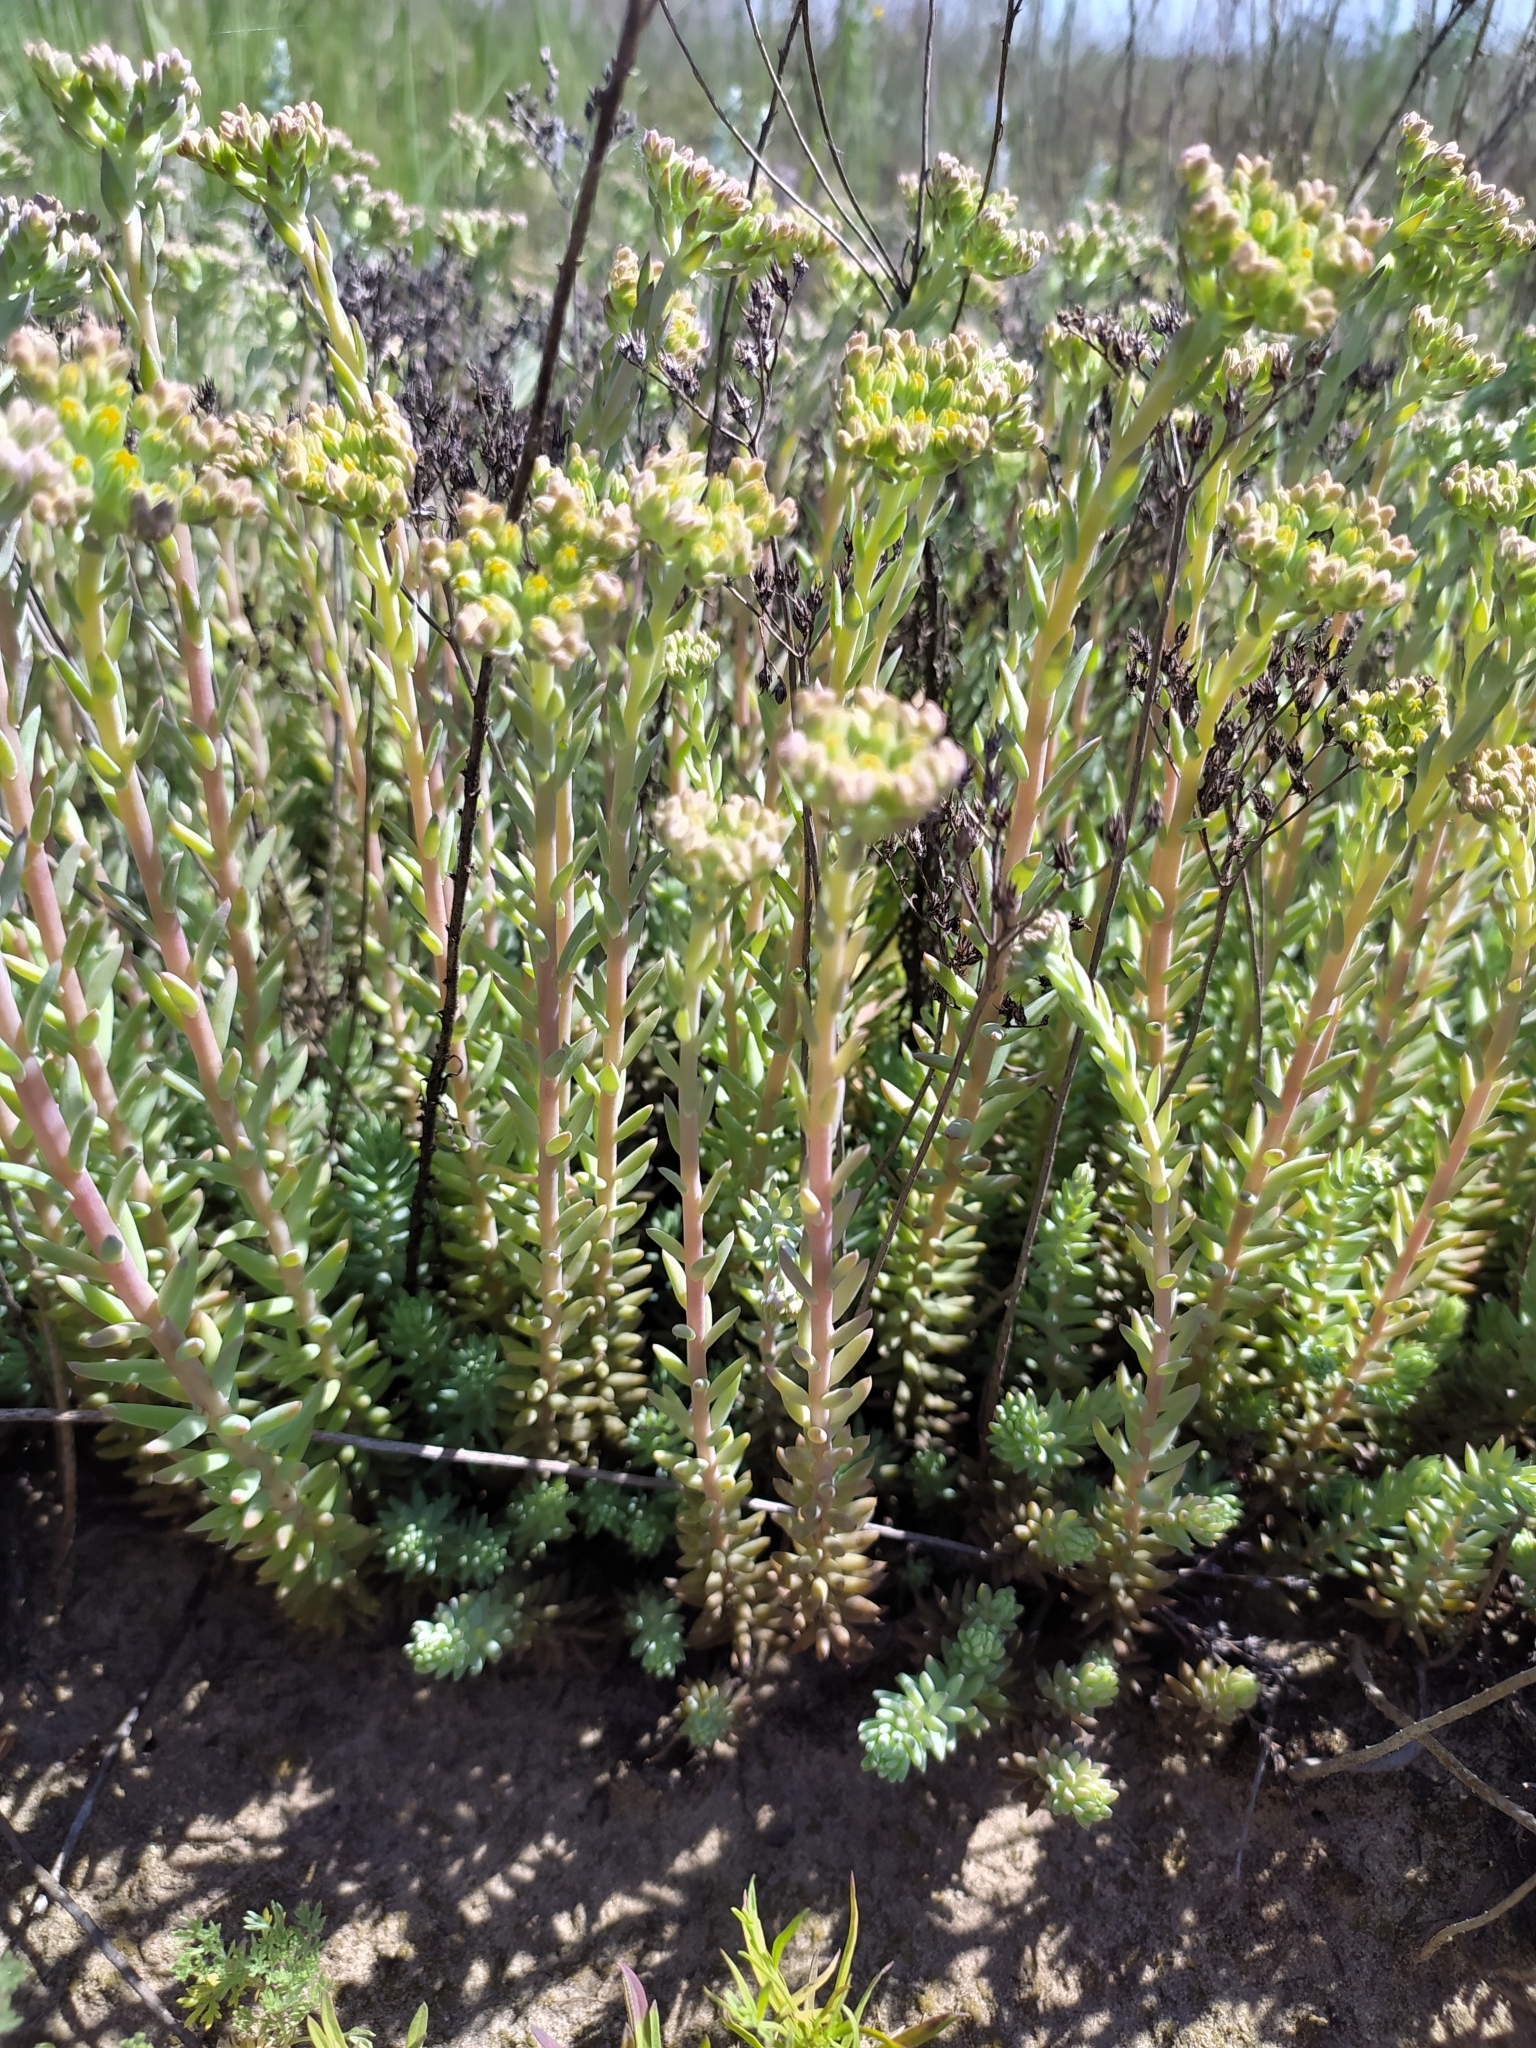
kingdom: Plantae
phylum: Tracheophyta
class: Magnoliopsida
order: Saxifragales
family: Crassulaceae
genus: Sedum
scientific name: Sedum acre
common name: Biting stonecrop
